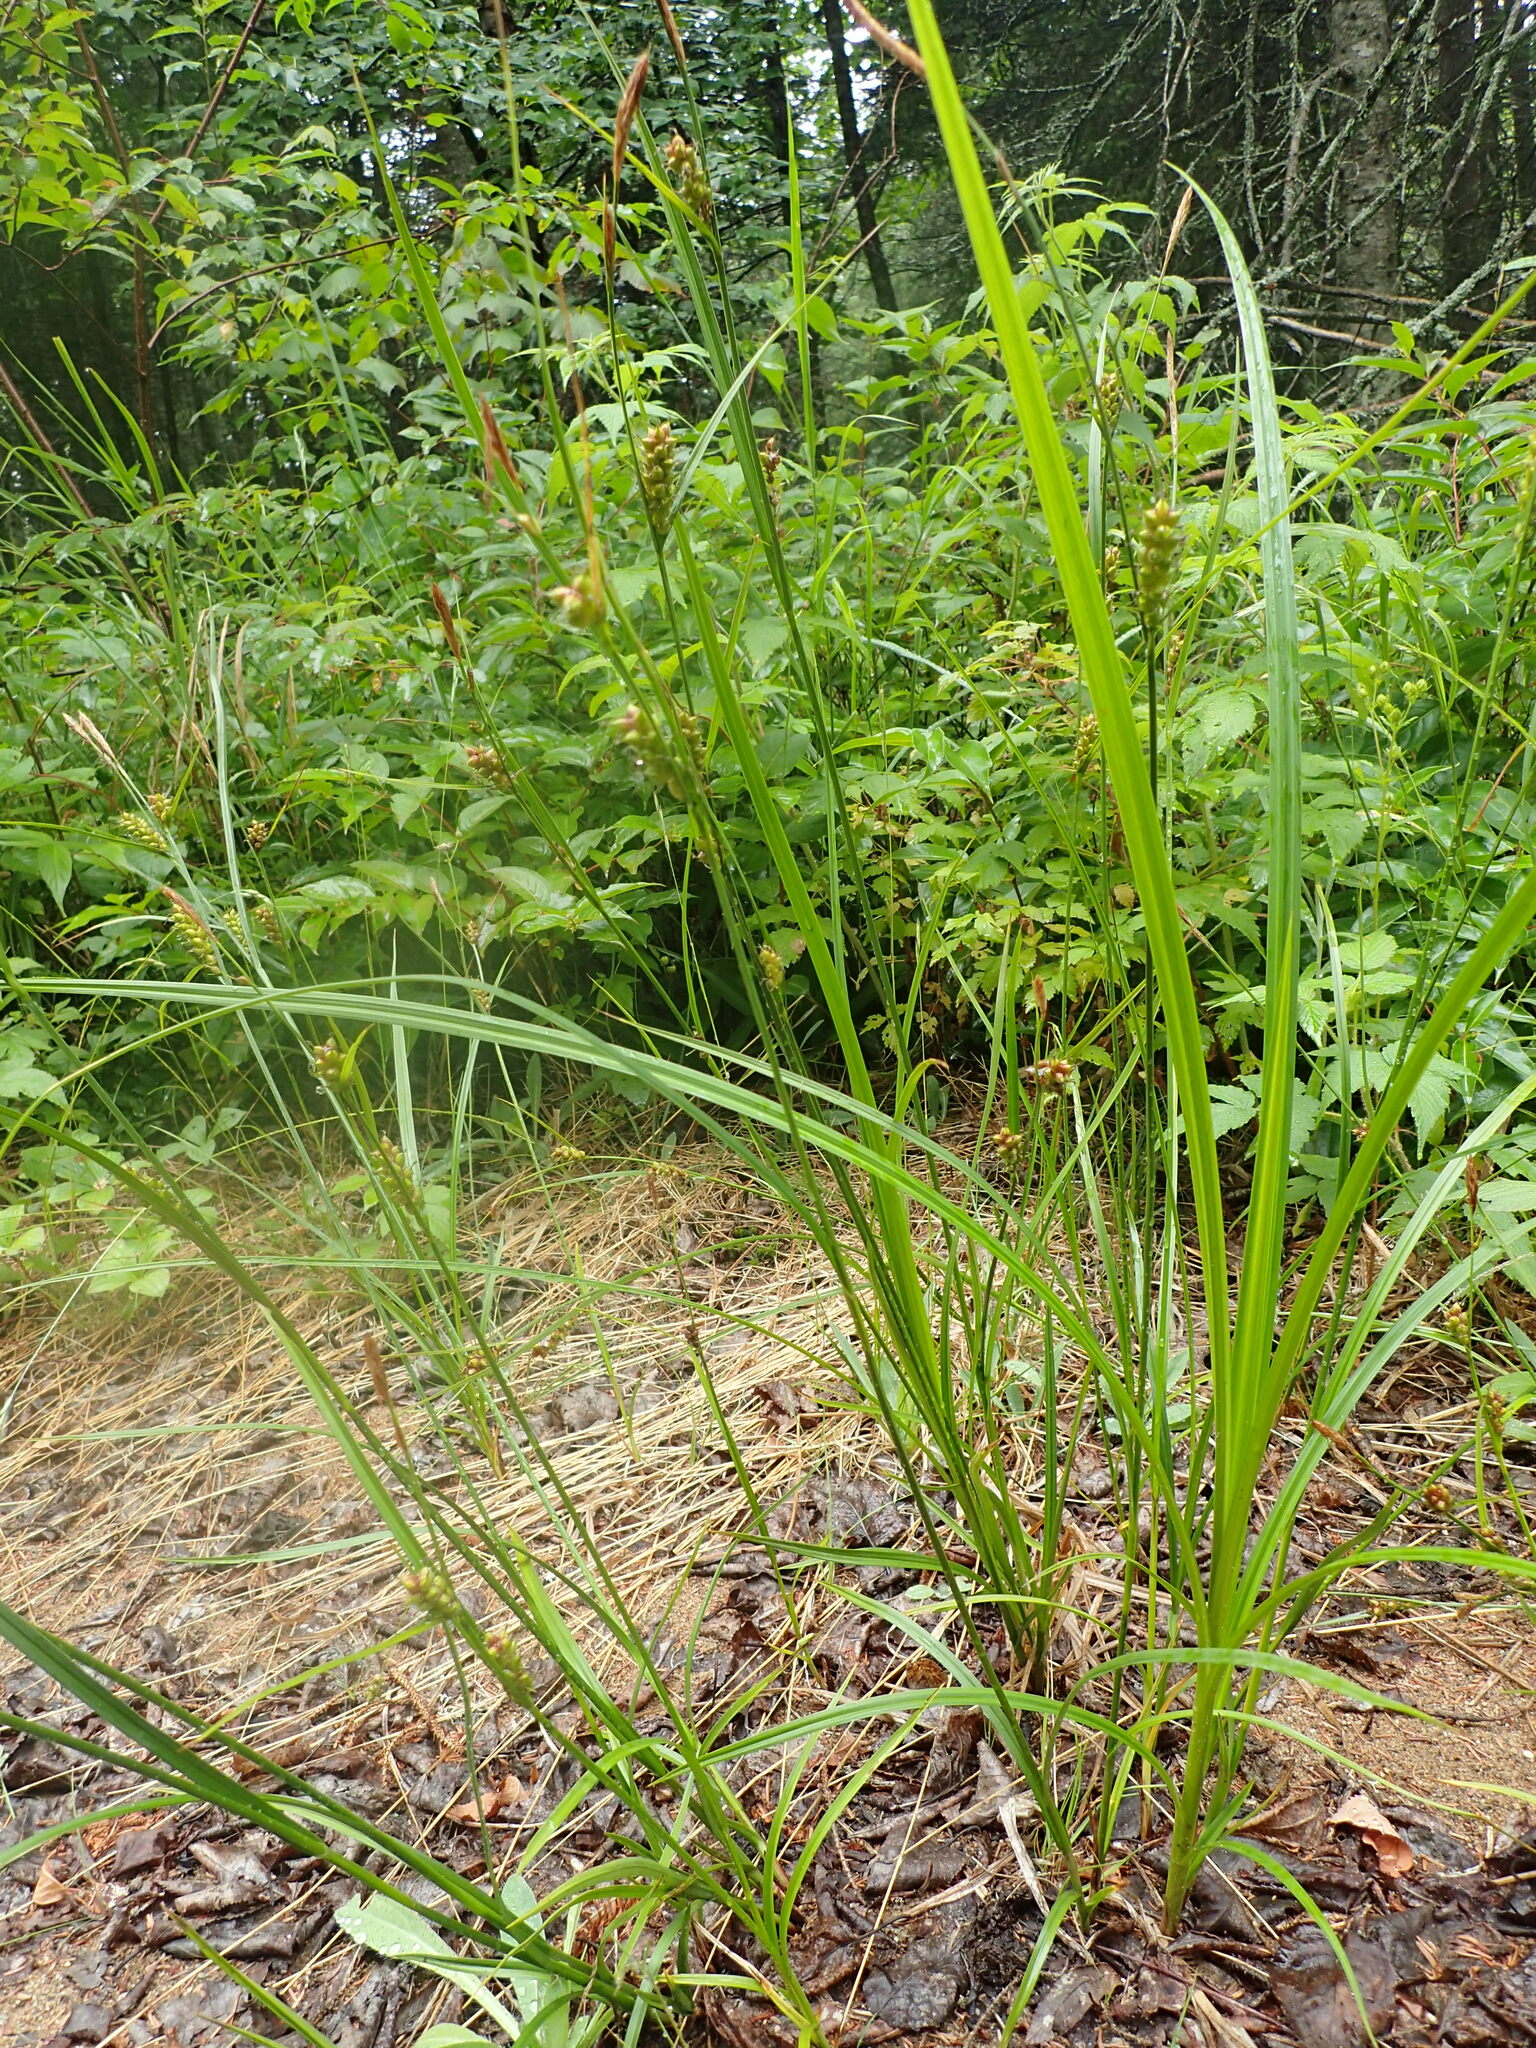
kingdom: Plantae
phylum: Tracheophyta
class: Liliopsida
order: Poales
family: Cyperaceae
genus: Carex
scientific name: Carex houghtoniana
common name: Houghton's sedge
